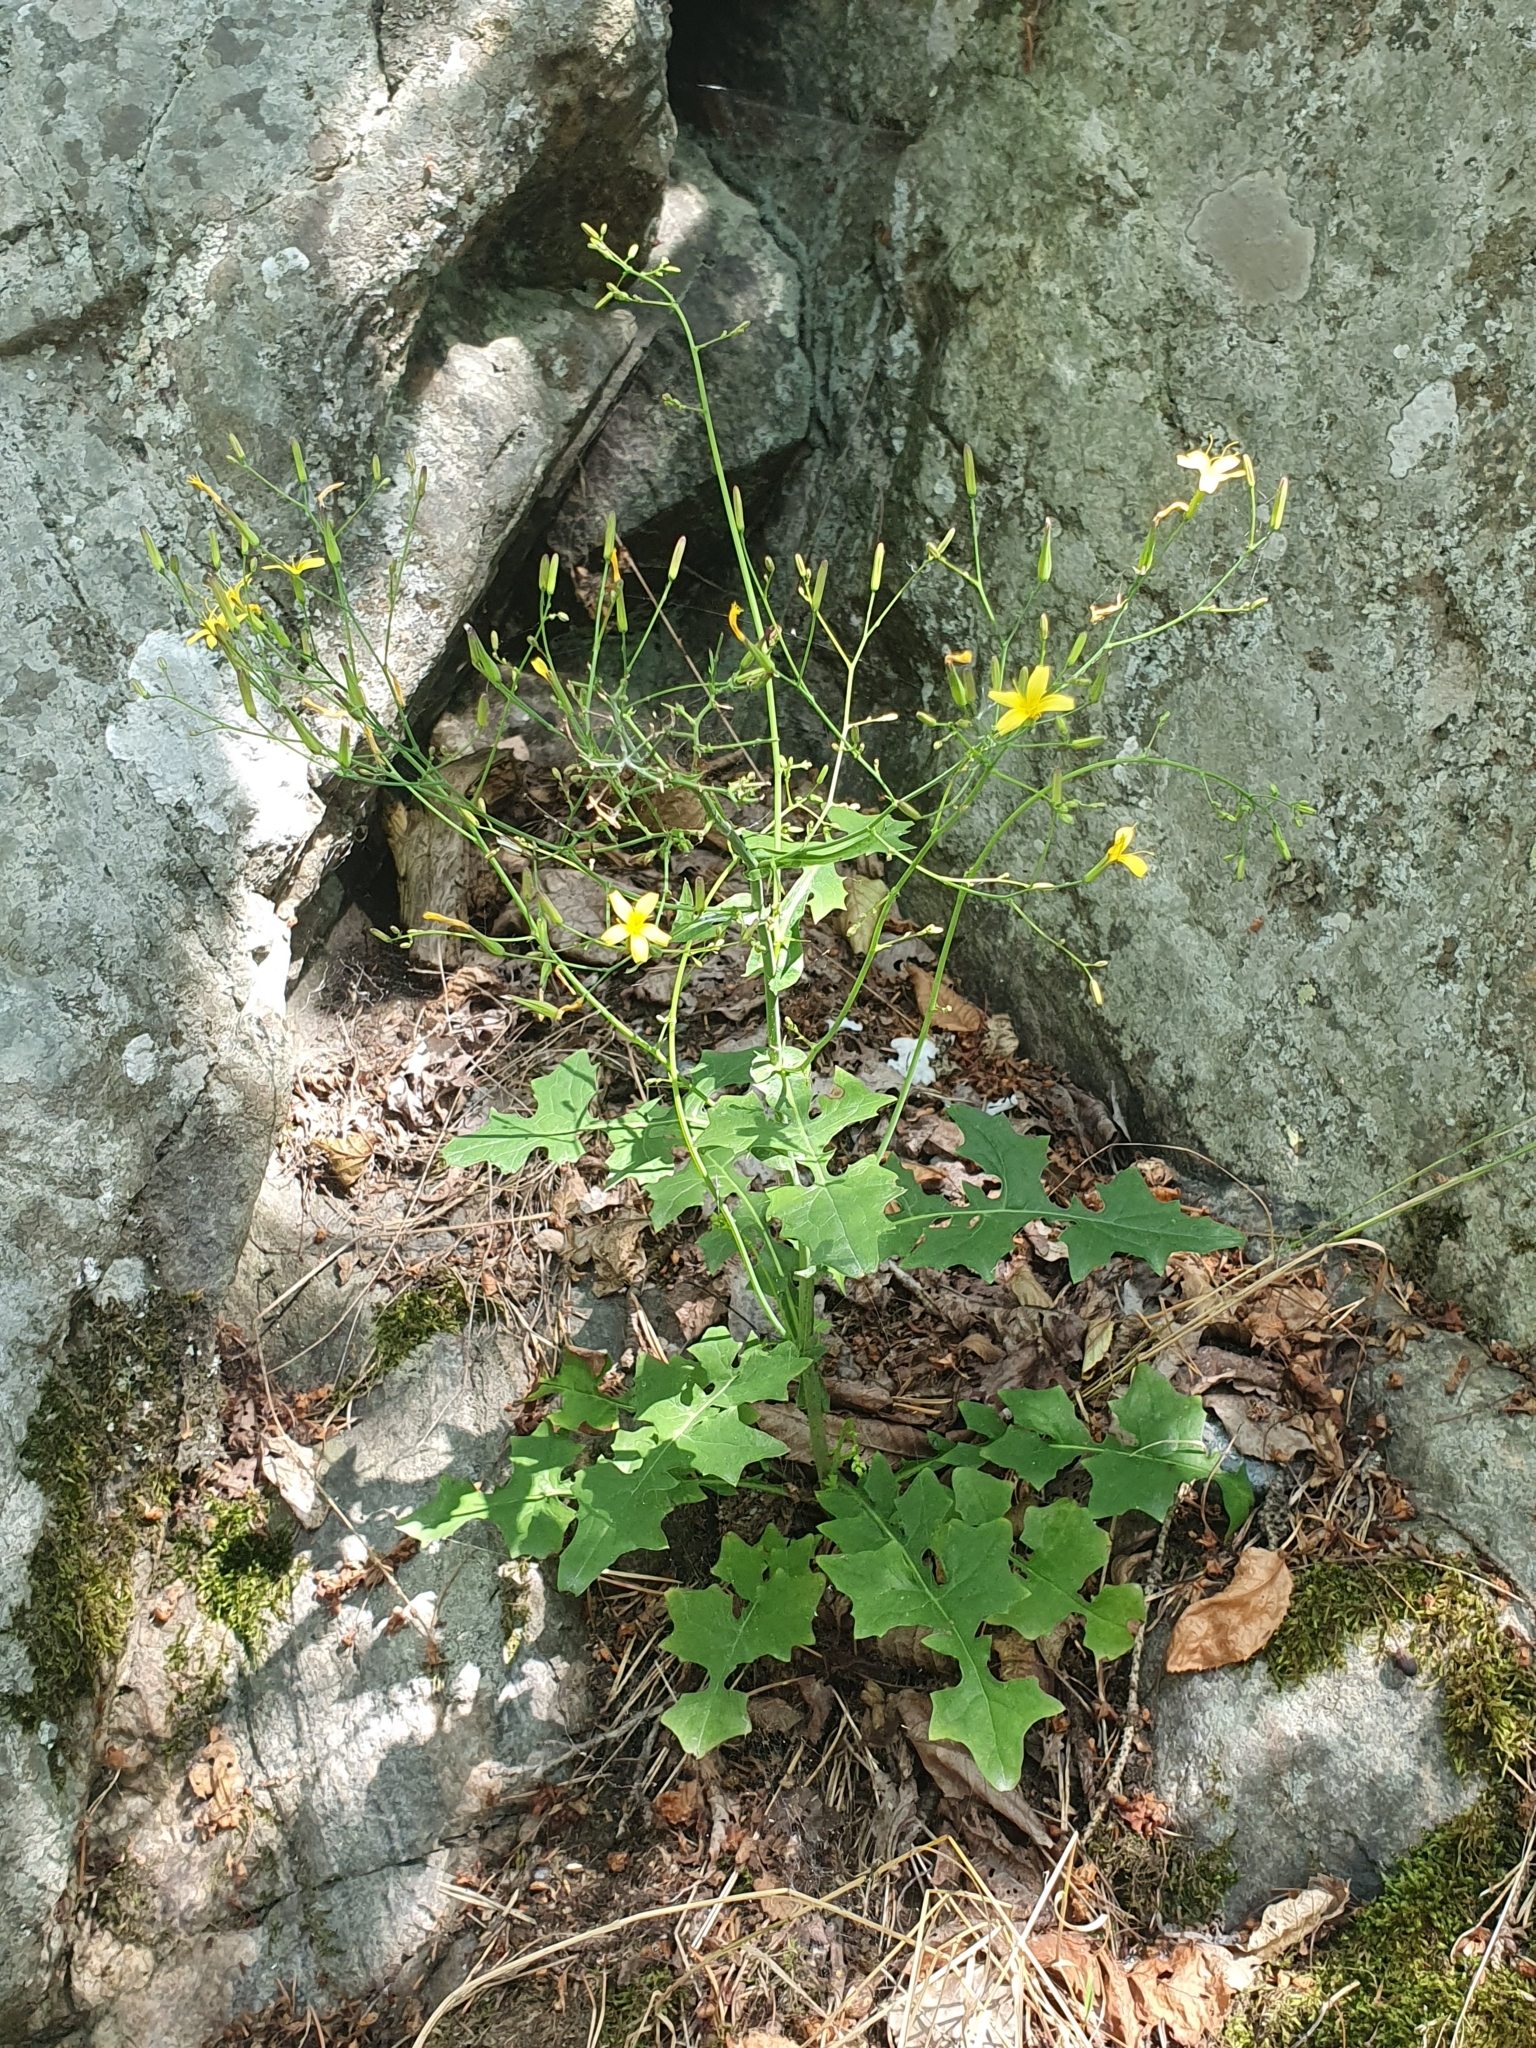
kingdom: Plantae
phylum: Tracheophyta
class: Magnoliopsida
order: Asterales
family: Asteraceae
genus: Mycelis
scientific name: Mycelis muralis
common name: Wall lettuce
